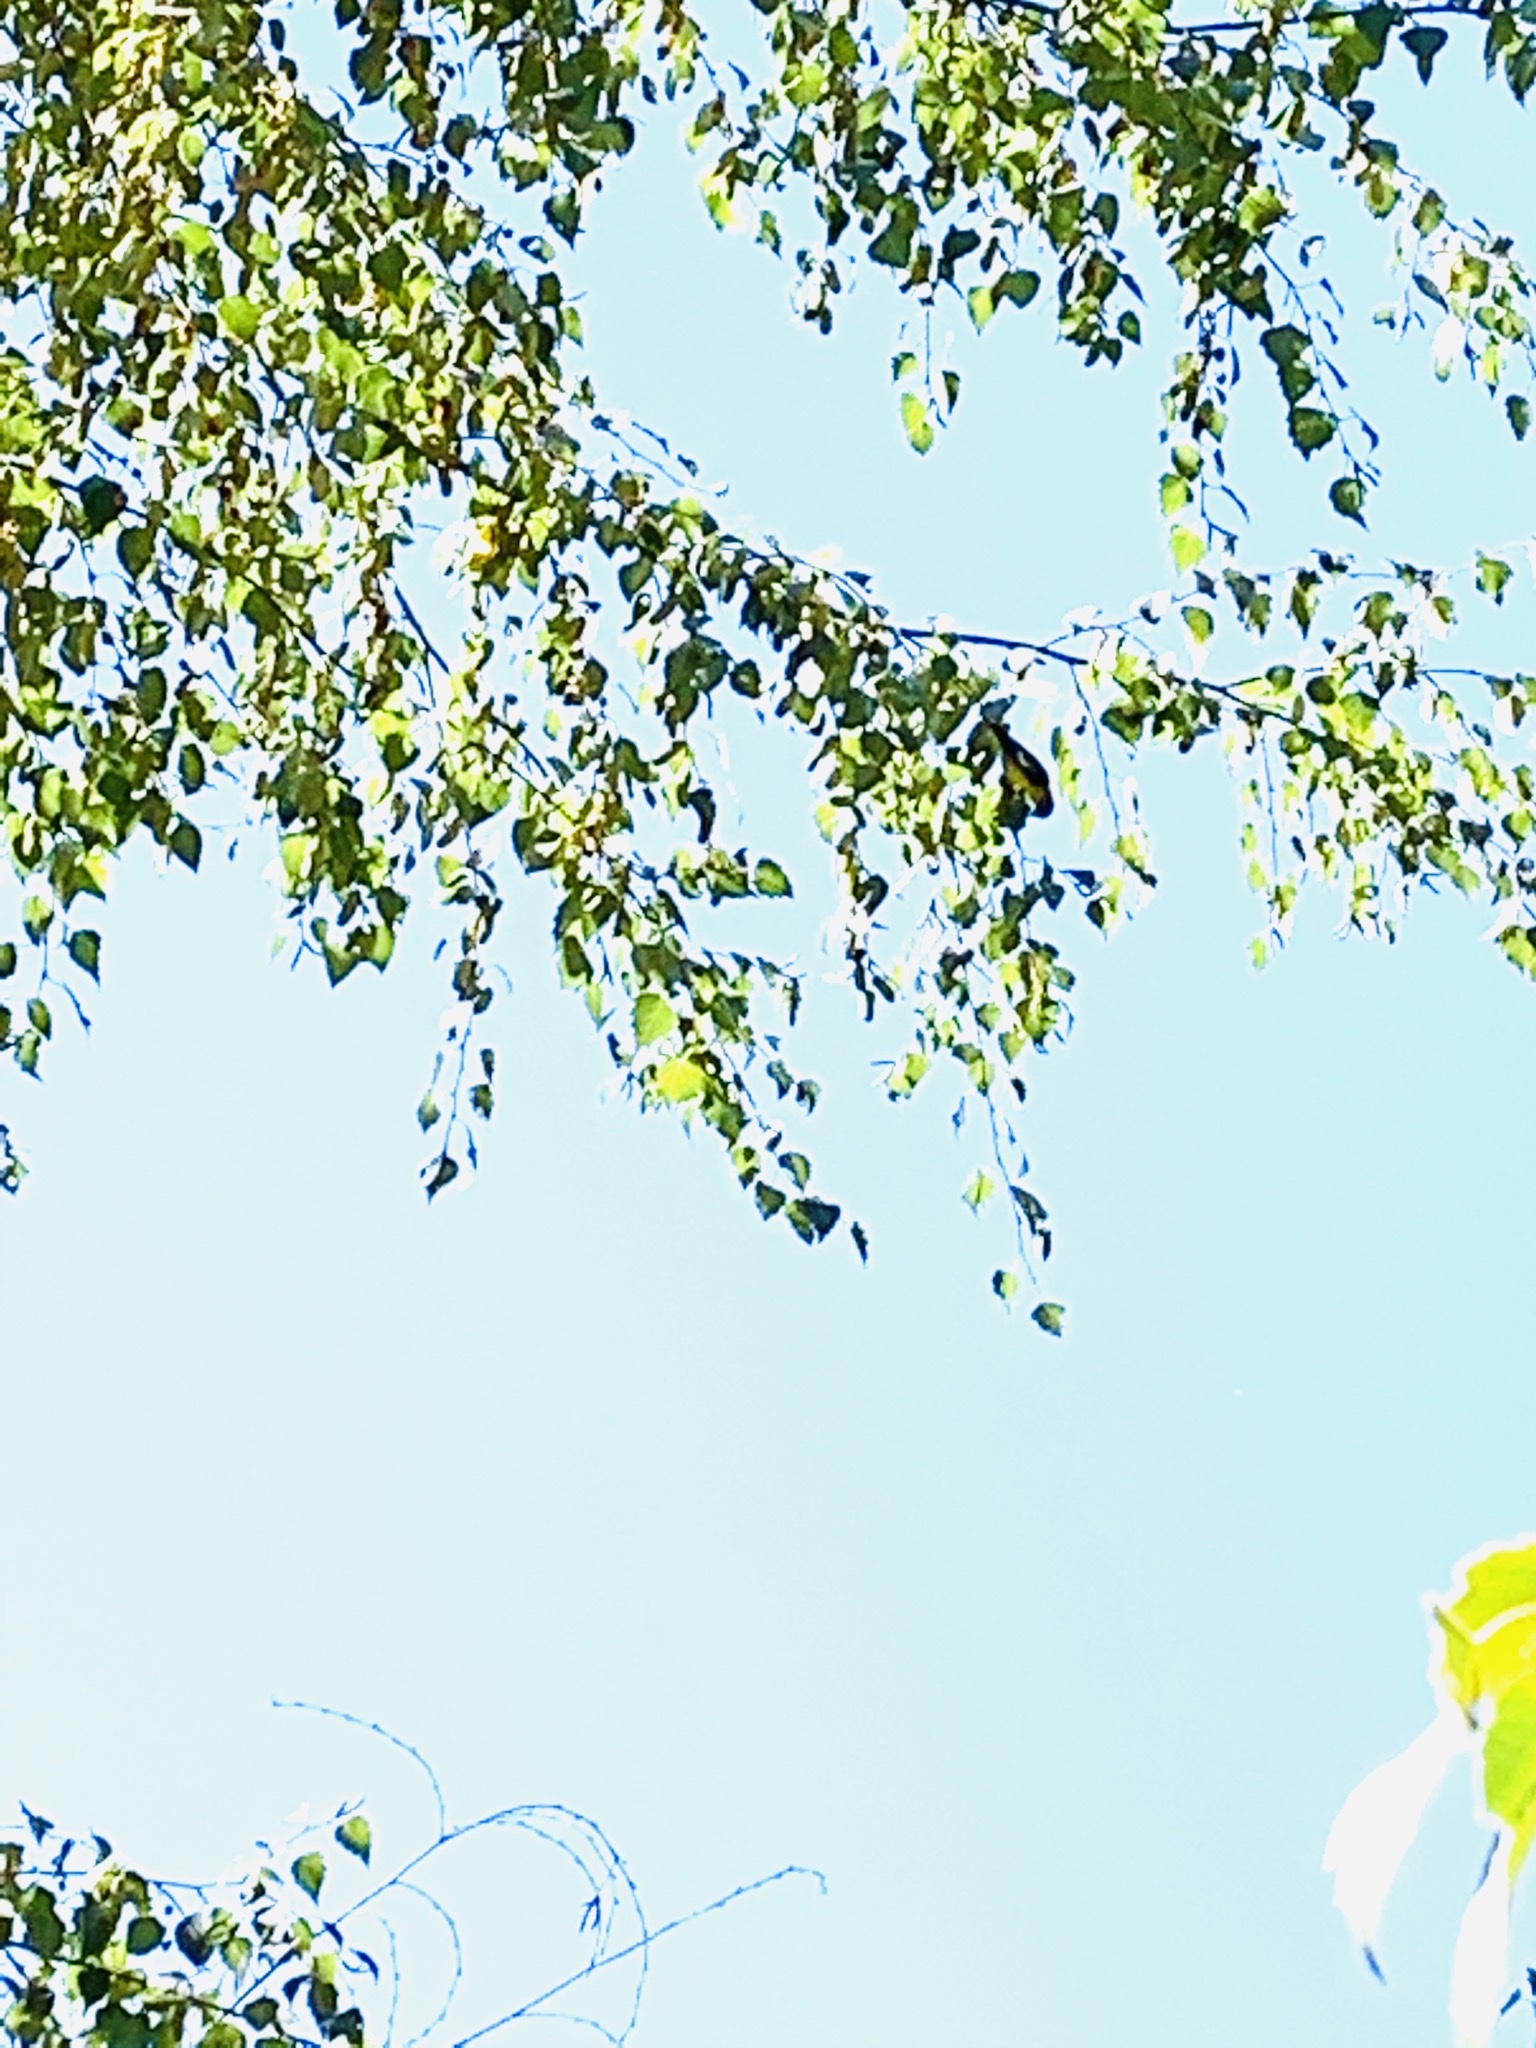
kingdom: Animalia
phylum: Chordata
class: Aves
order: Passeriformes
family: Fringillidae
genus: Spinus
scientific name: Spinus psaltria
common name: Lesser goldfinch
